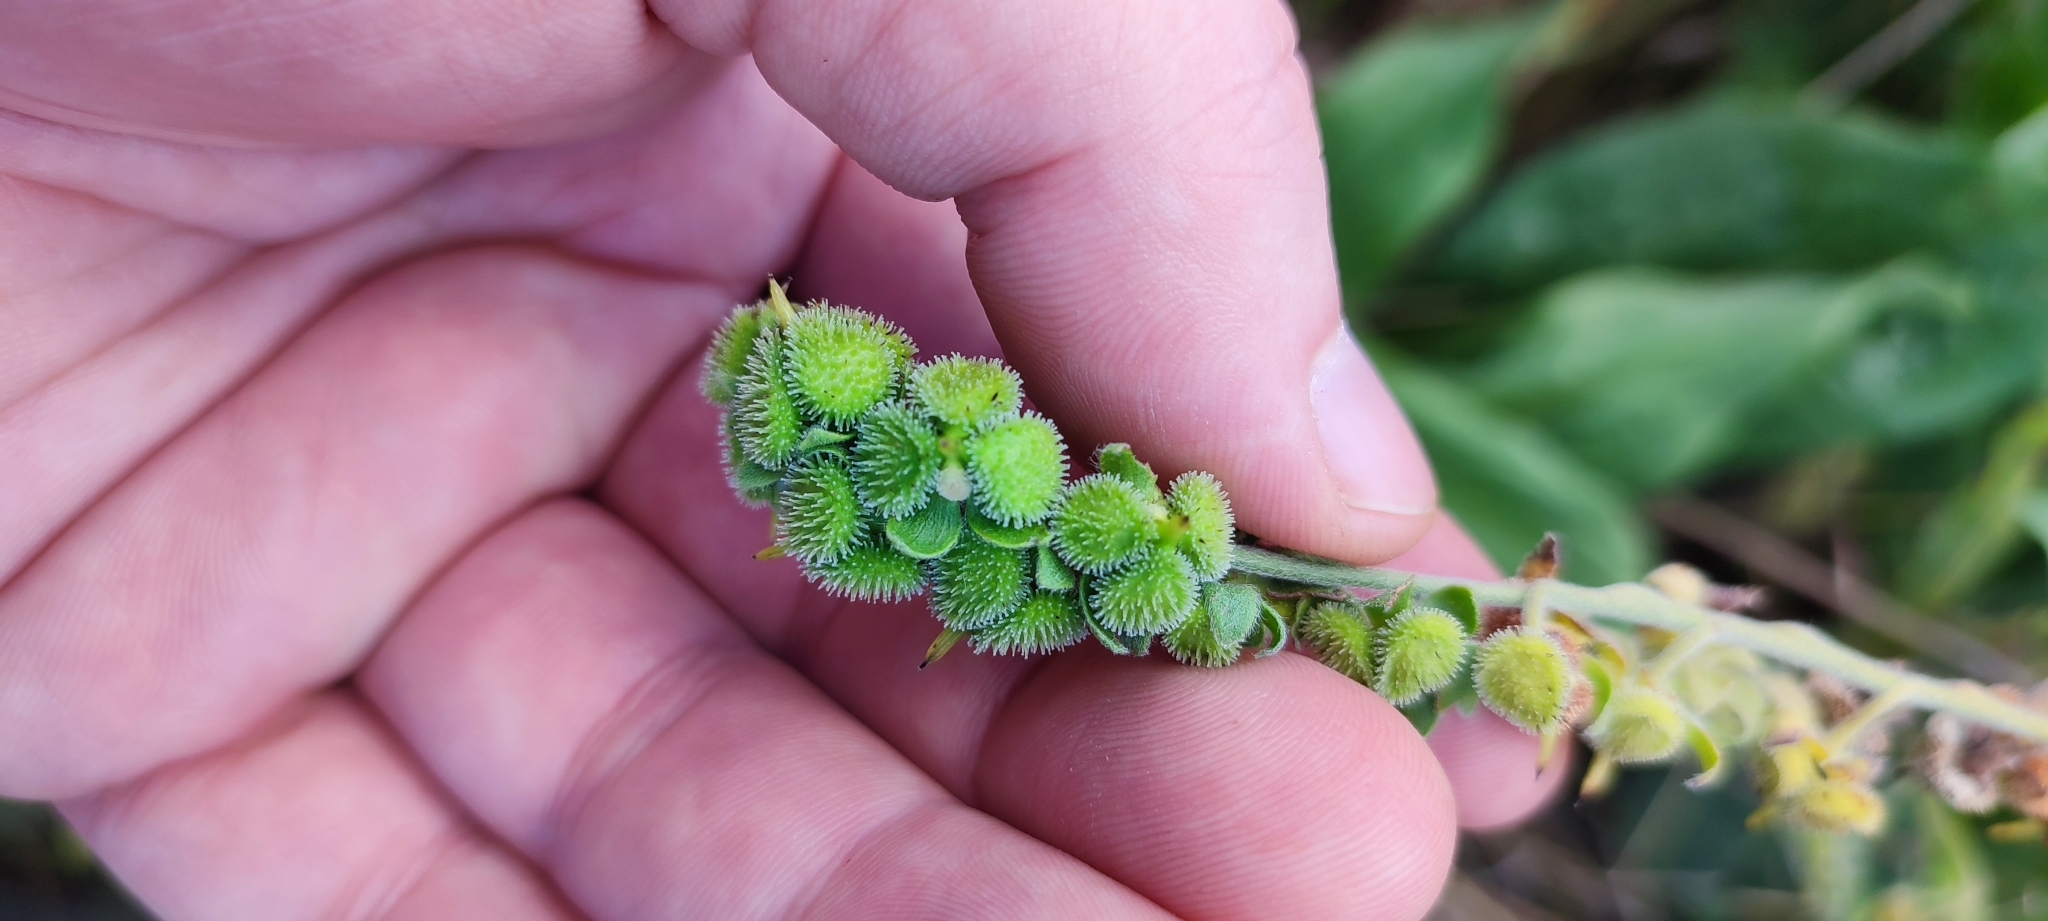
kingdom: Plantae
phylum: Tracheophyta
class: Magnoliopsida
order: Boraginales
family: Boraginaceae
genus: Cynoglossum
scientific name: Cynoglossum officinale
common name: Hound's-tongue
